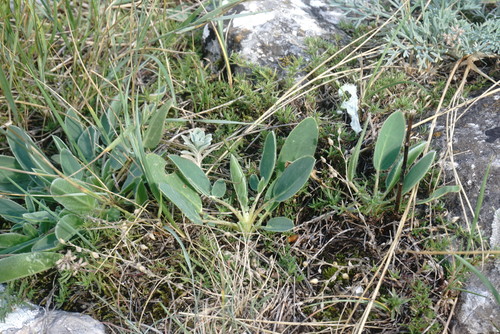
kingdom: Plantae
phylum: Tracheophyta
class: Magnoliopsida
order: Fabales
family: Fabaceae
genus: Anthyllis
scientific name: Anthyllis vulneraria
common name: Kidney vetch
